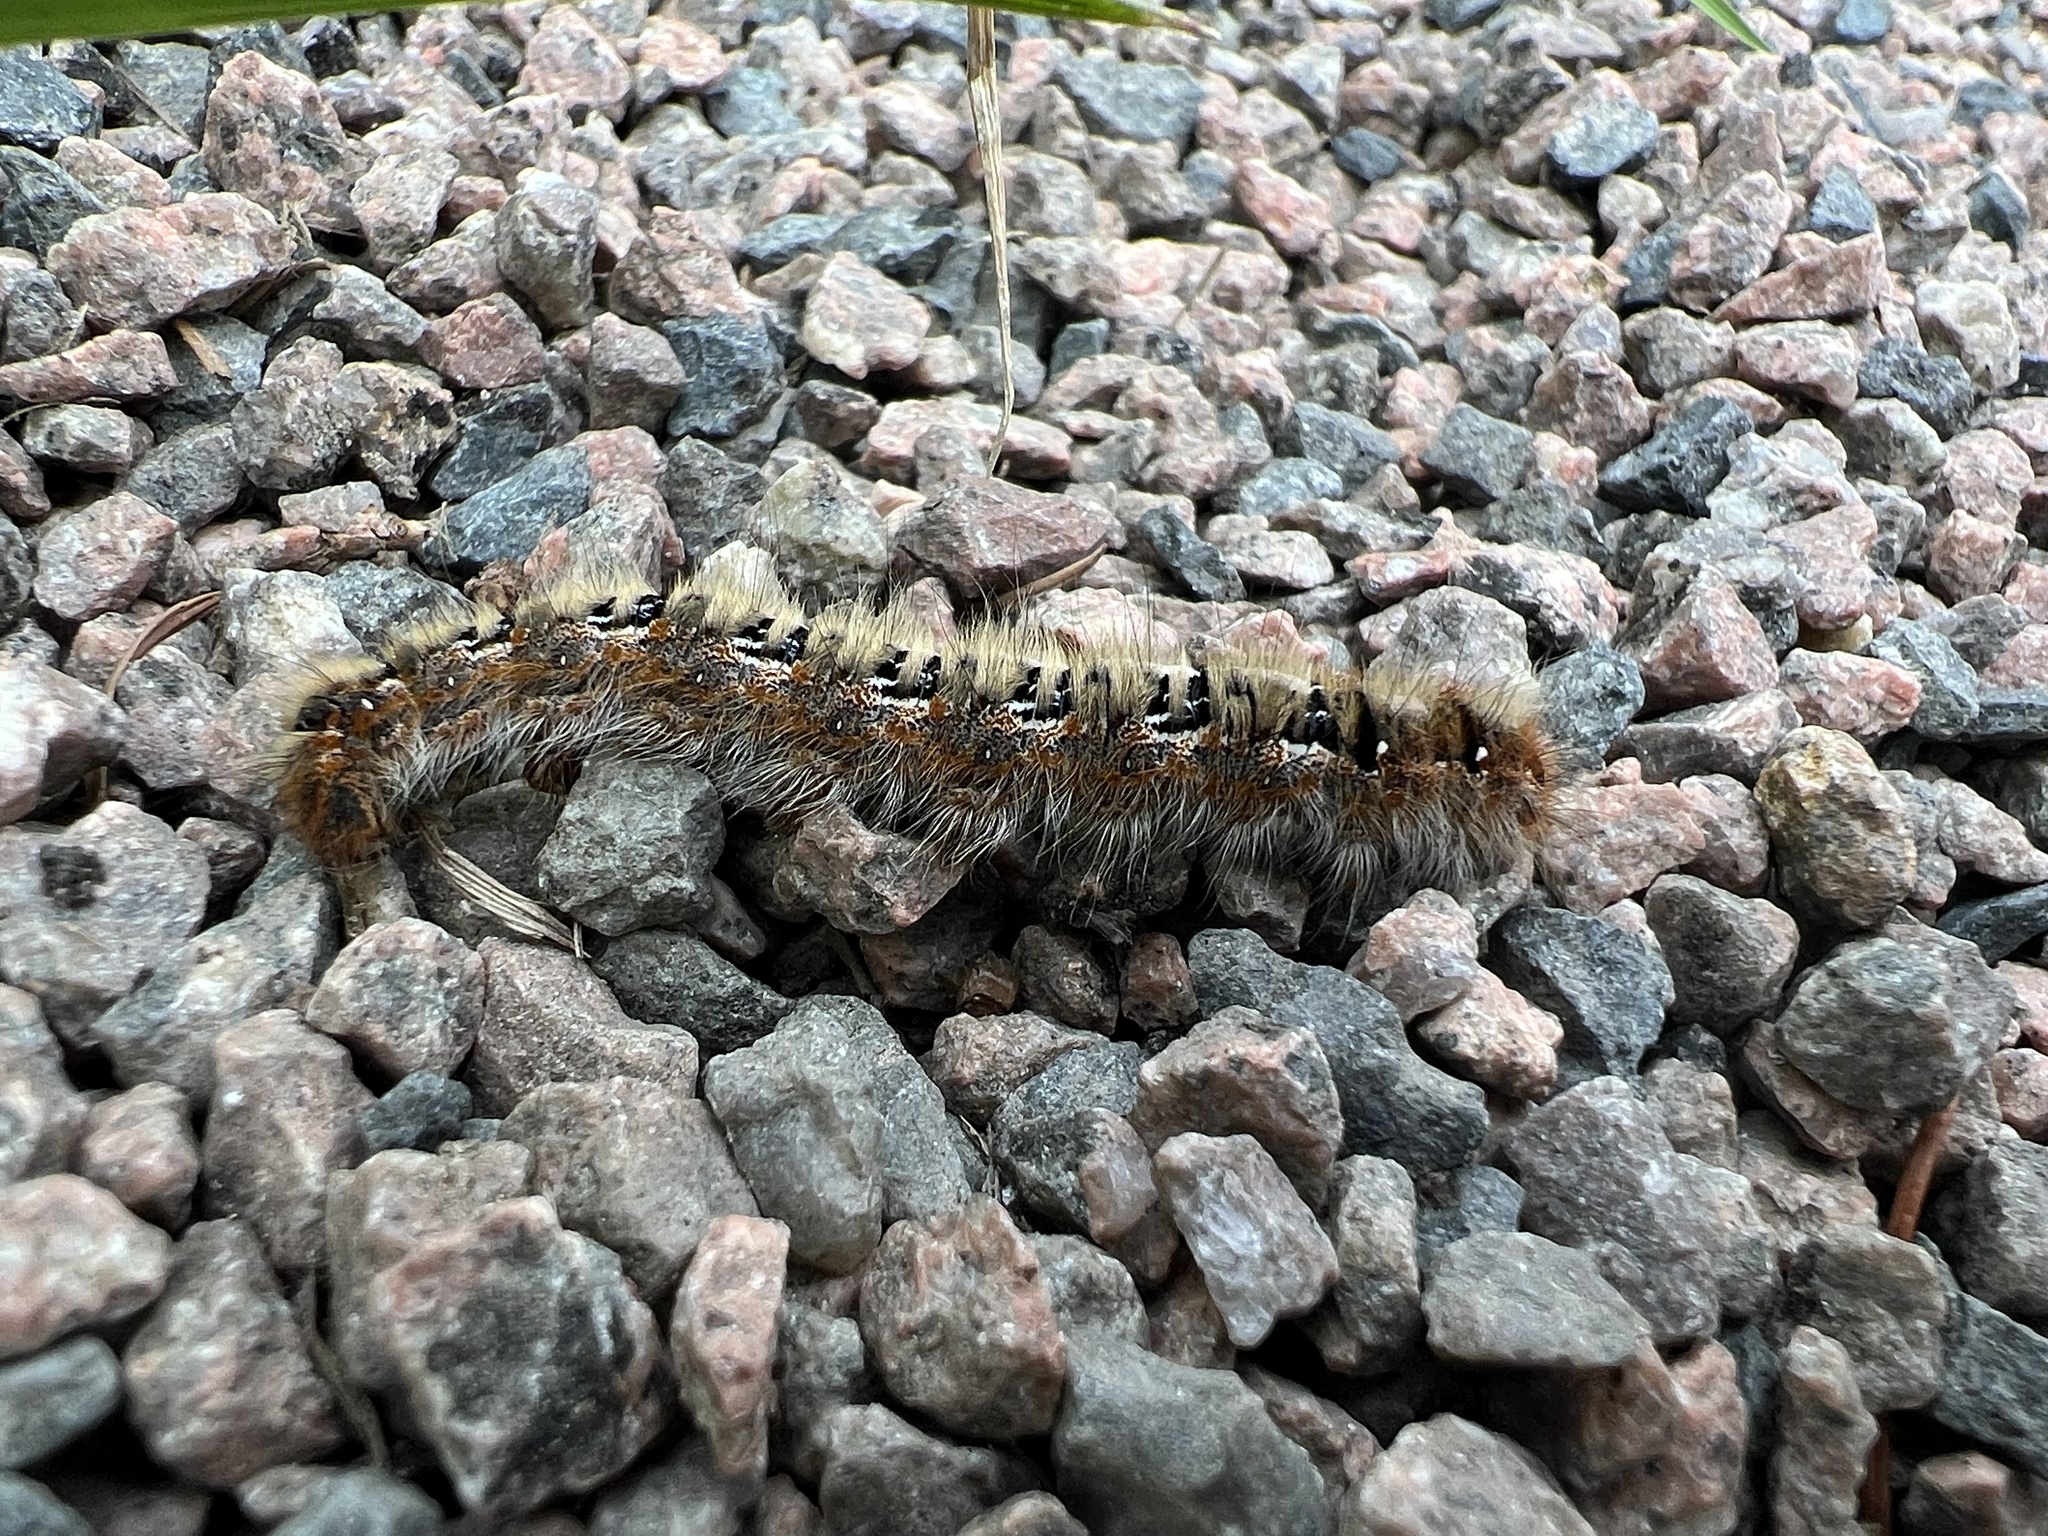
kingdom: Animalia
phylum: Arthropoda
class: Insecta
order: Lepidoptera
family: Lasiocampidae
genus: Lasiocampa
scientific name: Lasiocampa quercus
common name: Oak eggar
